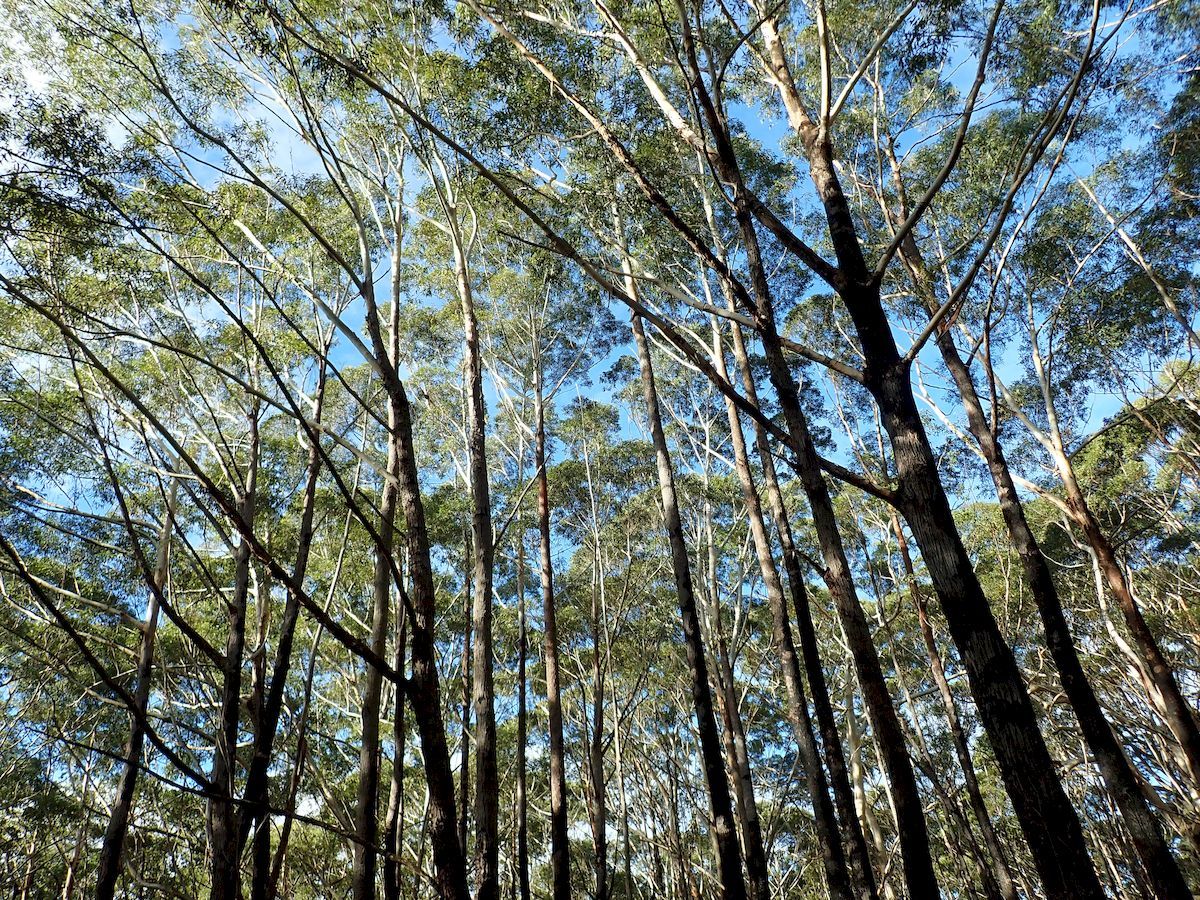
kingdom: Plantae
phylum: Tracheophyta
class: Magnoliopsida
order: Myrtales
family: Myrtaceae
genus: Eucalyptus
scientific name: Eucalyptus pilularis
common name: Blackbutt
